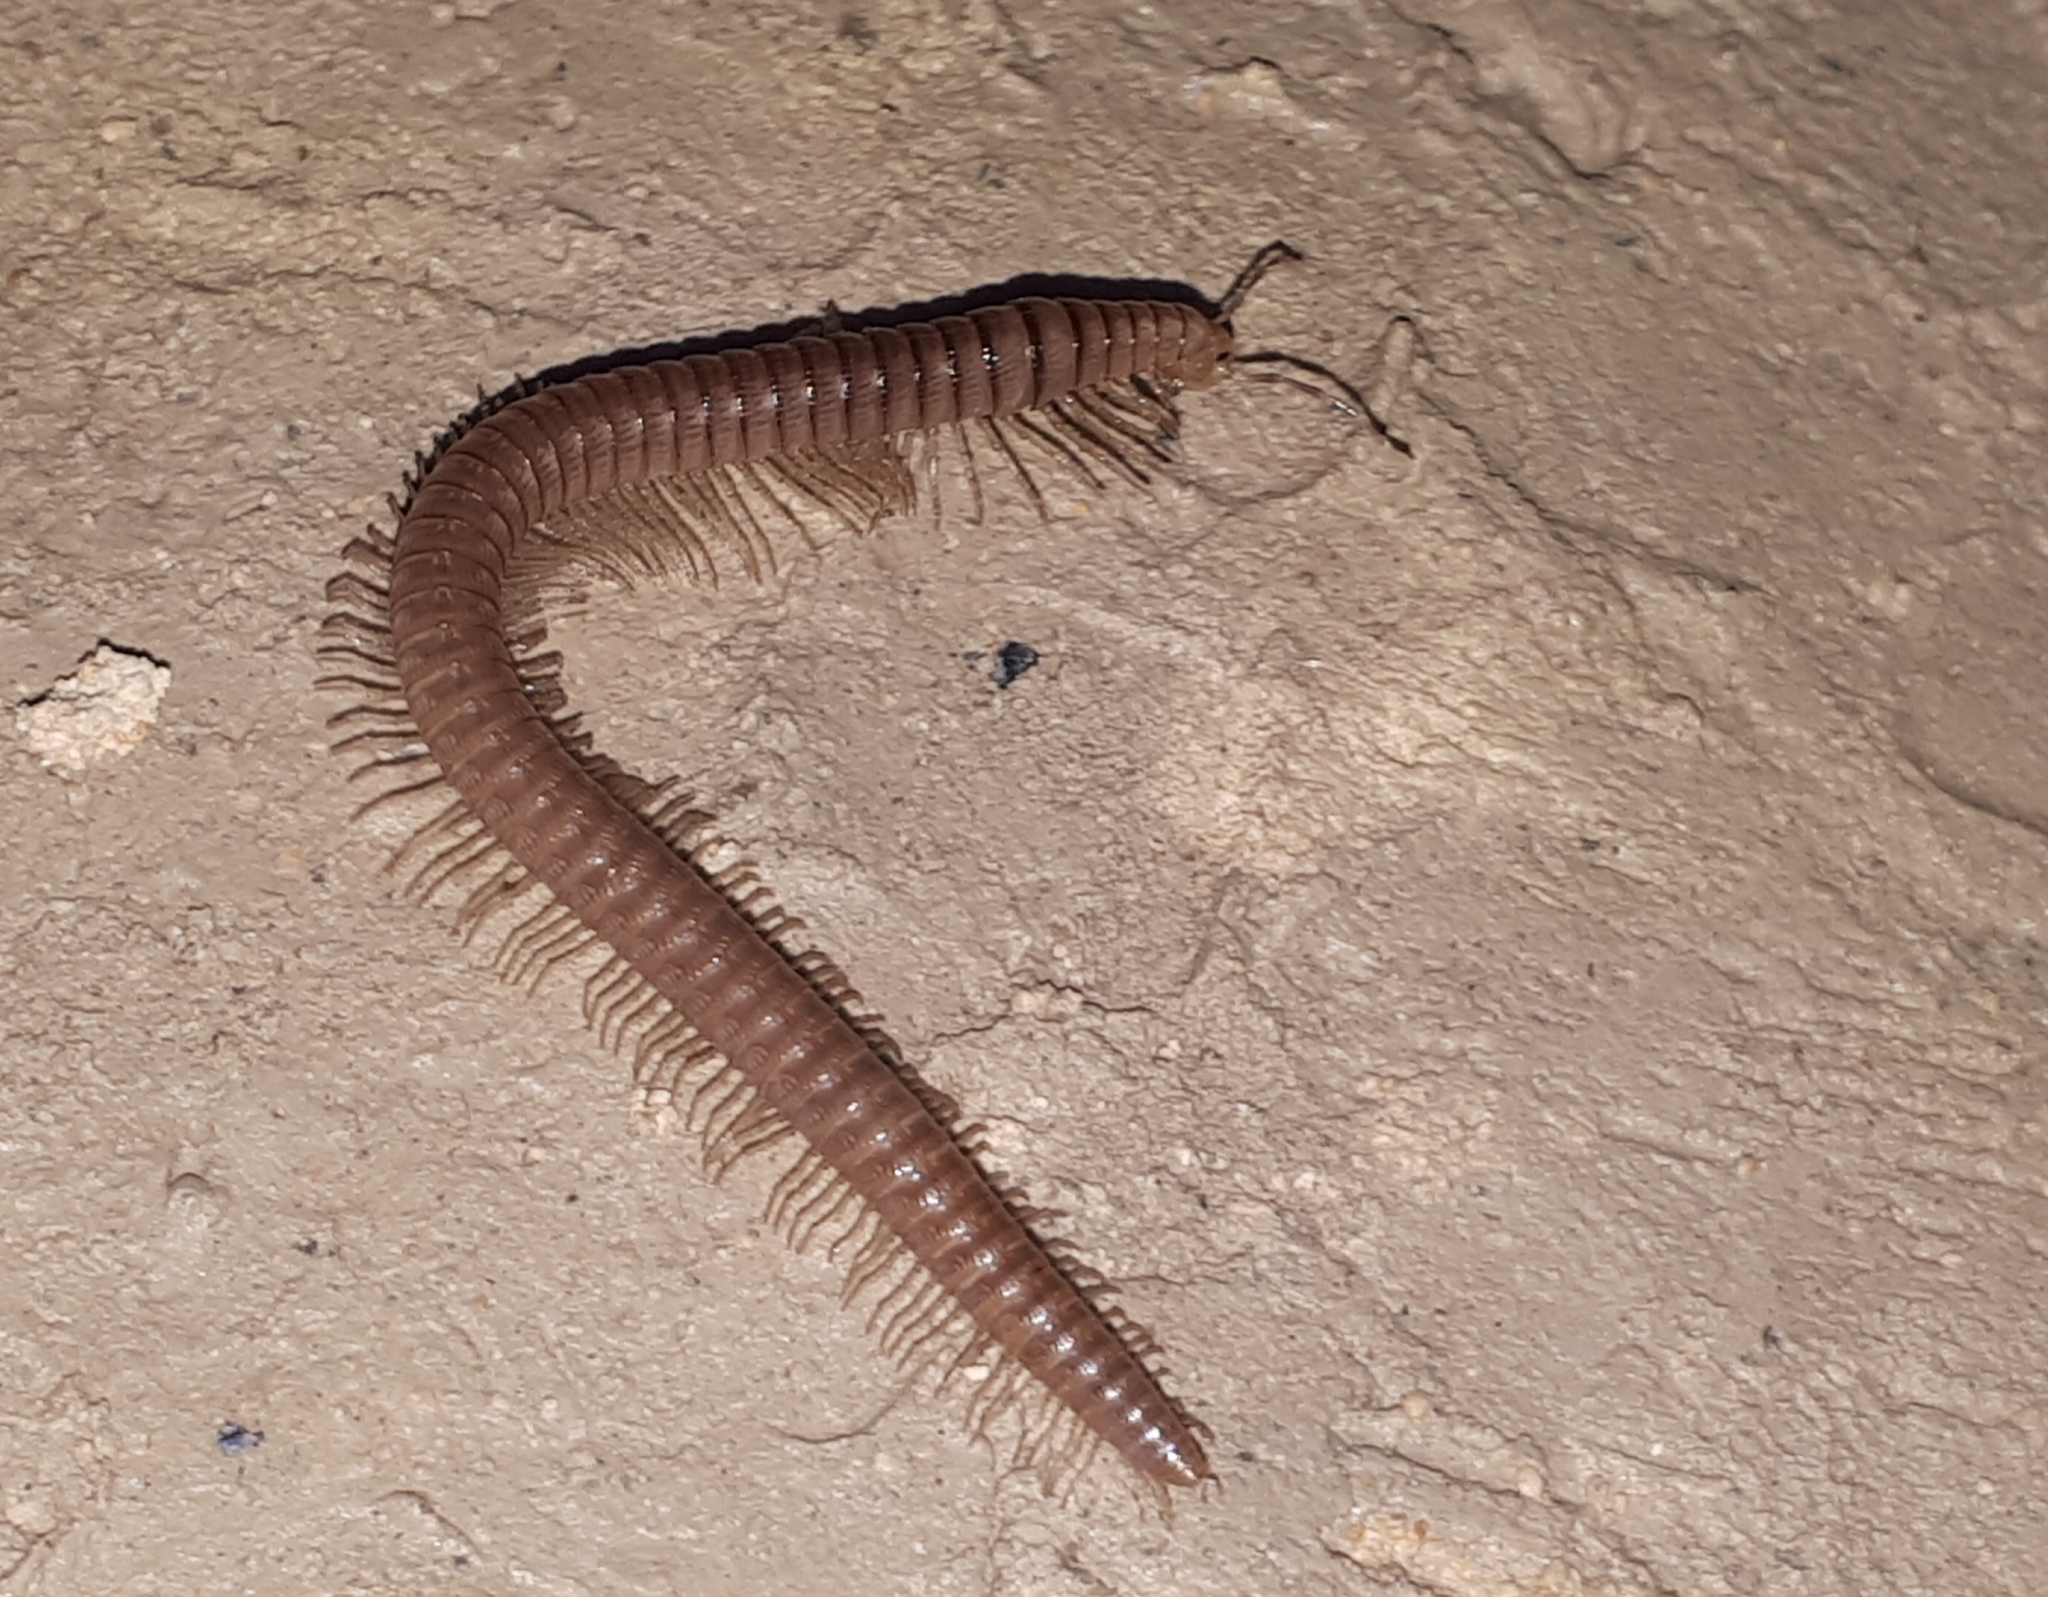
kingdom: Animalia
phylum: Arthropoda
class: Diplopoda
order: Callipodida
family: Callipodidae
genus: Callipus
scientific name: Callipus foetidissimus
